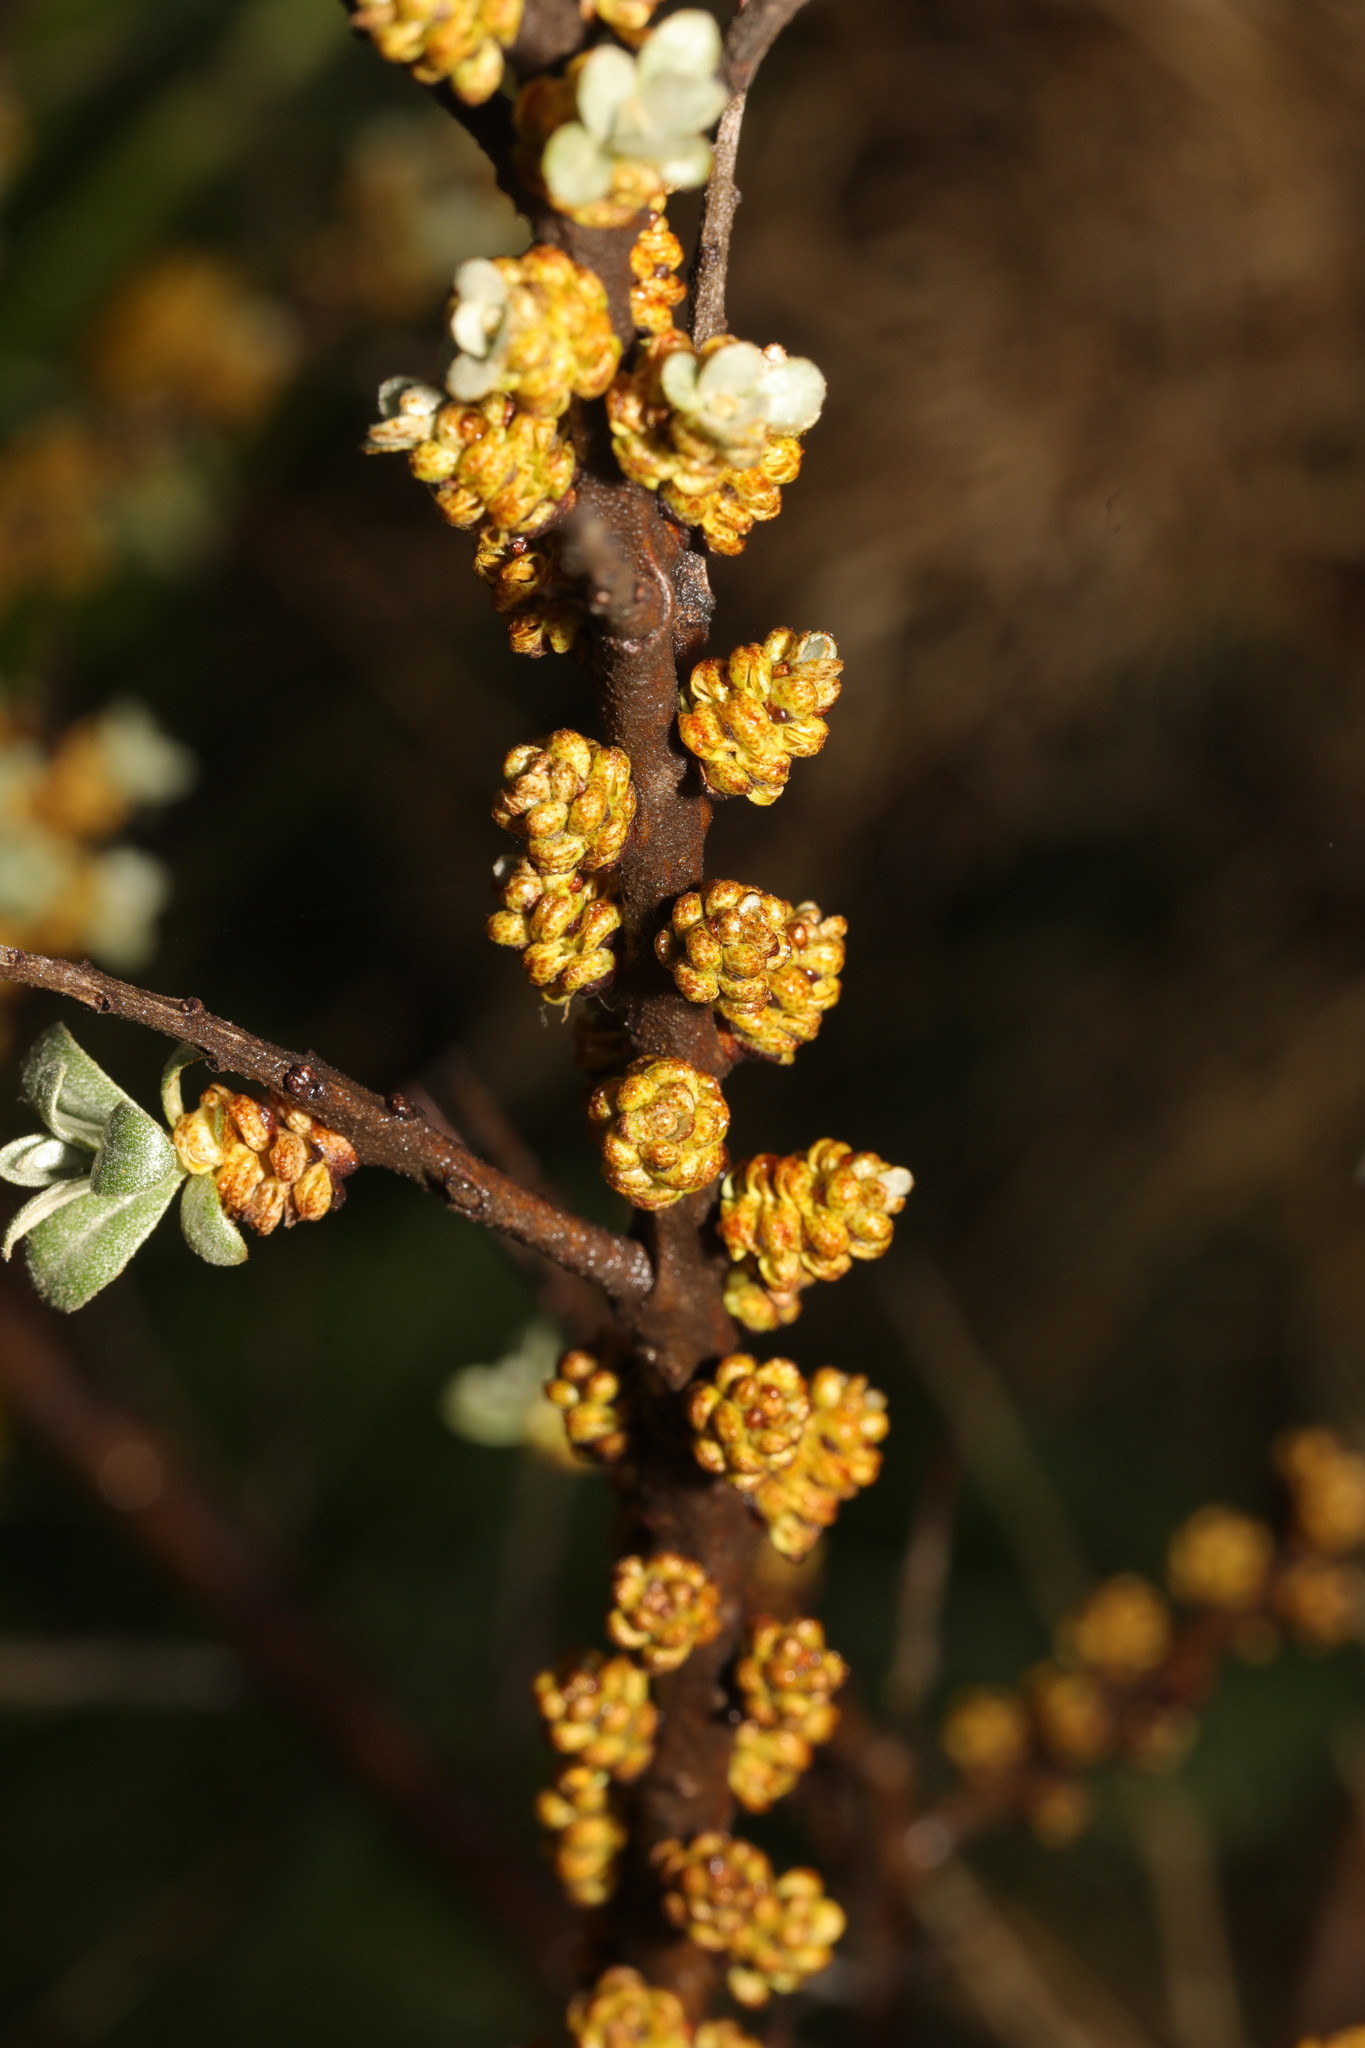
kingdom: Plantae
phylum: Tracheophyta
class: Magnoliopsida
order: Rosales
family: Elaeagnaceae
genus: Hippophae
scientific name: Hippophae rhamnoides
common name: Sea-buckthorn
